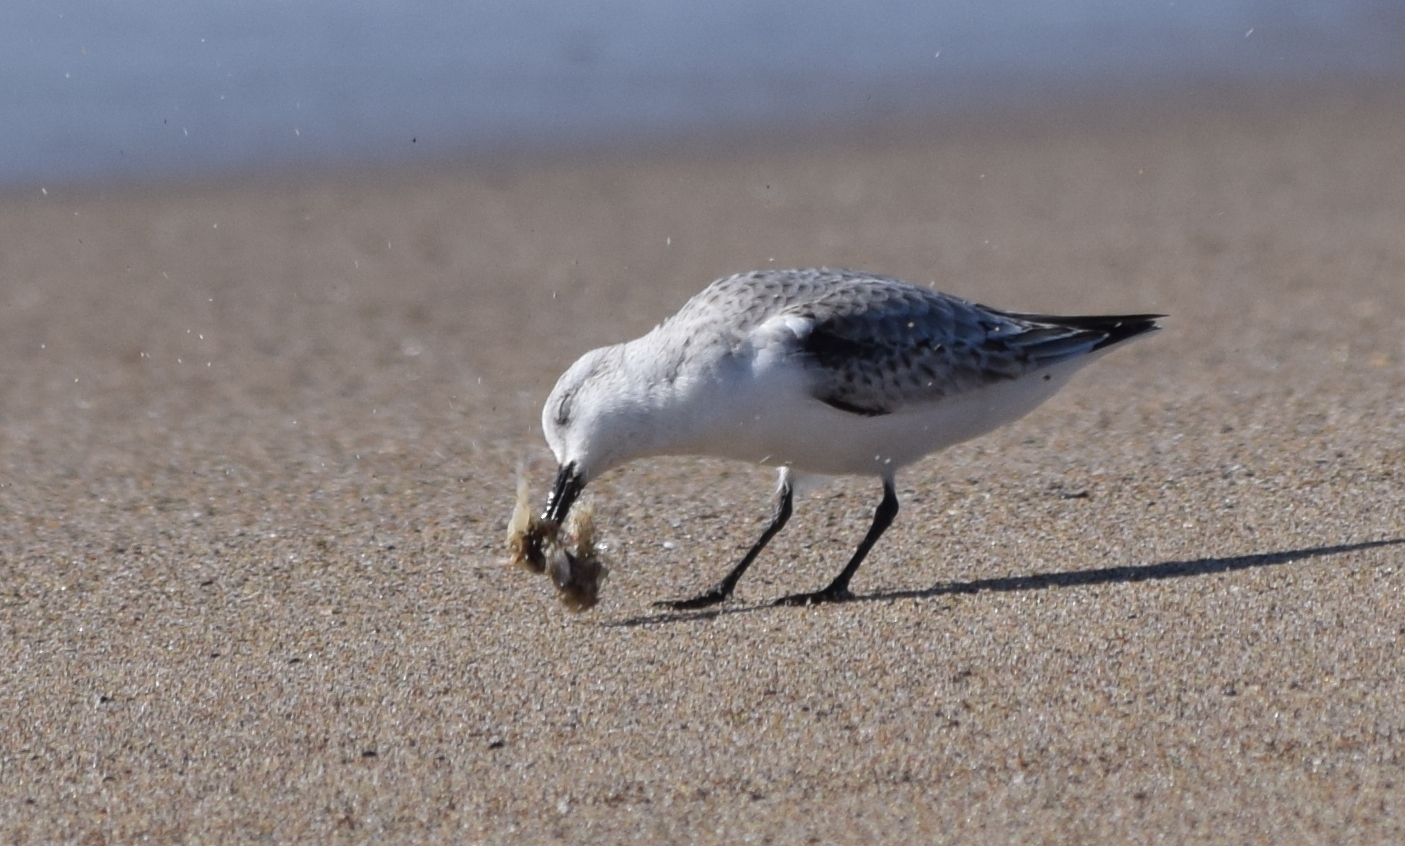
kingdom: Animalia
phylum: Chordata
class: Aves
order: Charadriiformes
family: Scolopacidae
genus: Calidris
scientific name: Calidris alba
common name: Sanderling
